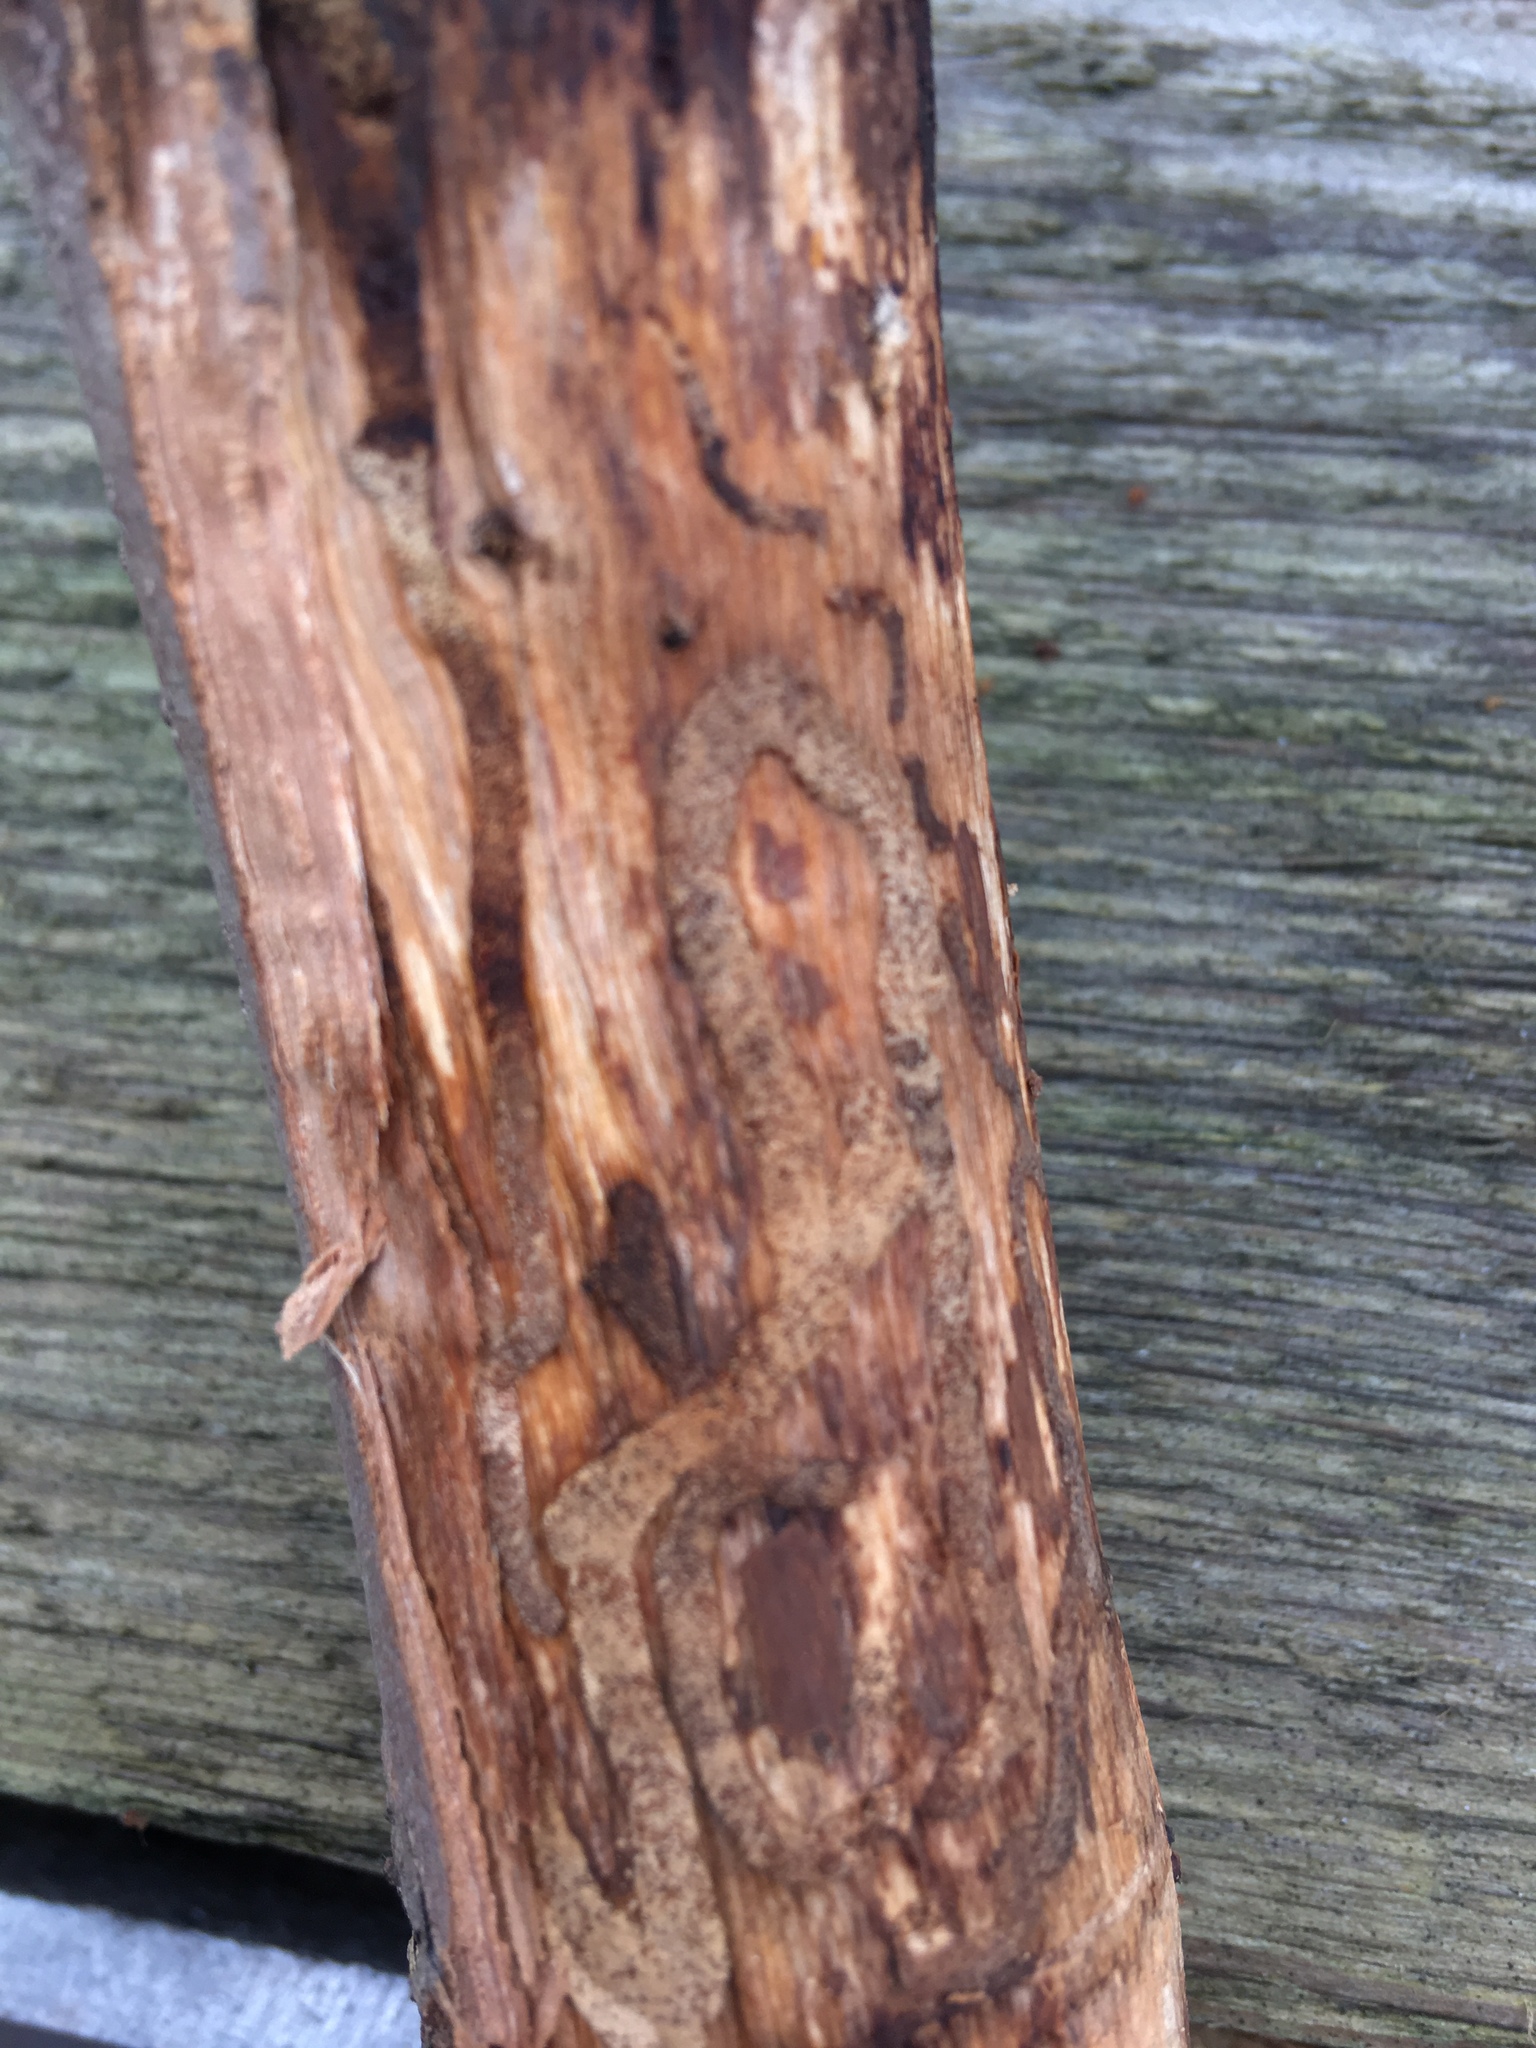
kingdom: Animalia
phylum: Arthropoda
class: Insecta
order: Coleoptera
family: Buprestidae
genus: Agrilus
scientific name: Agrilus planipennis
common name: Emerald ash borer
